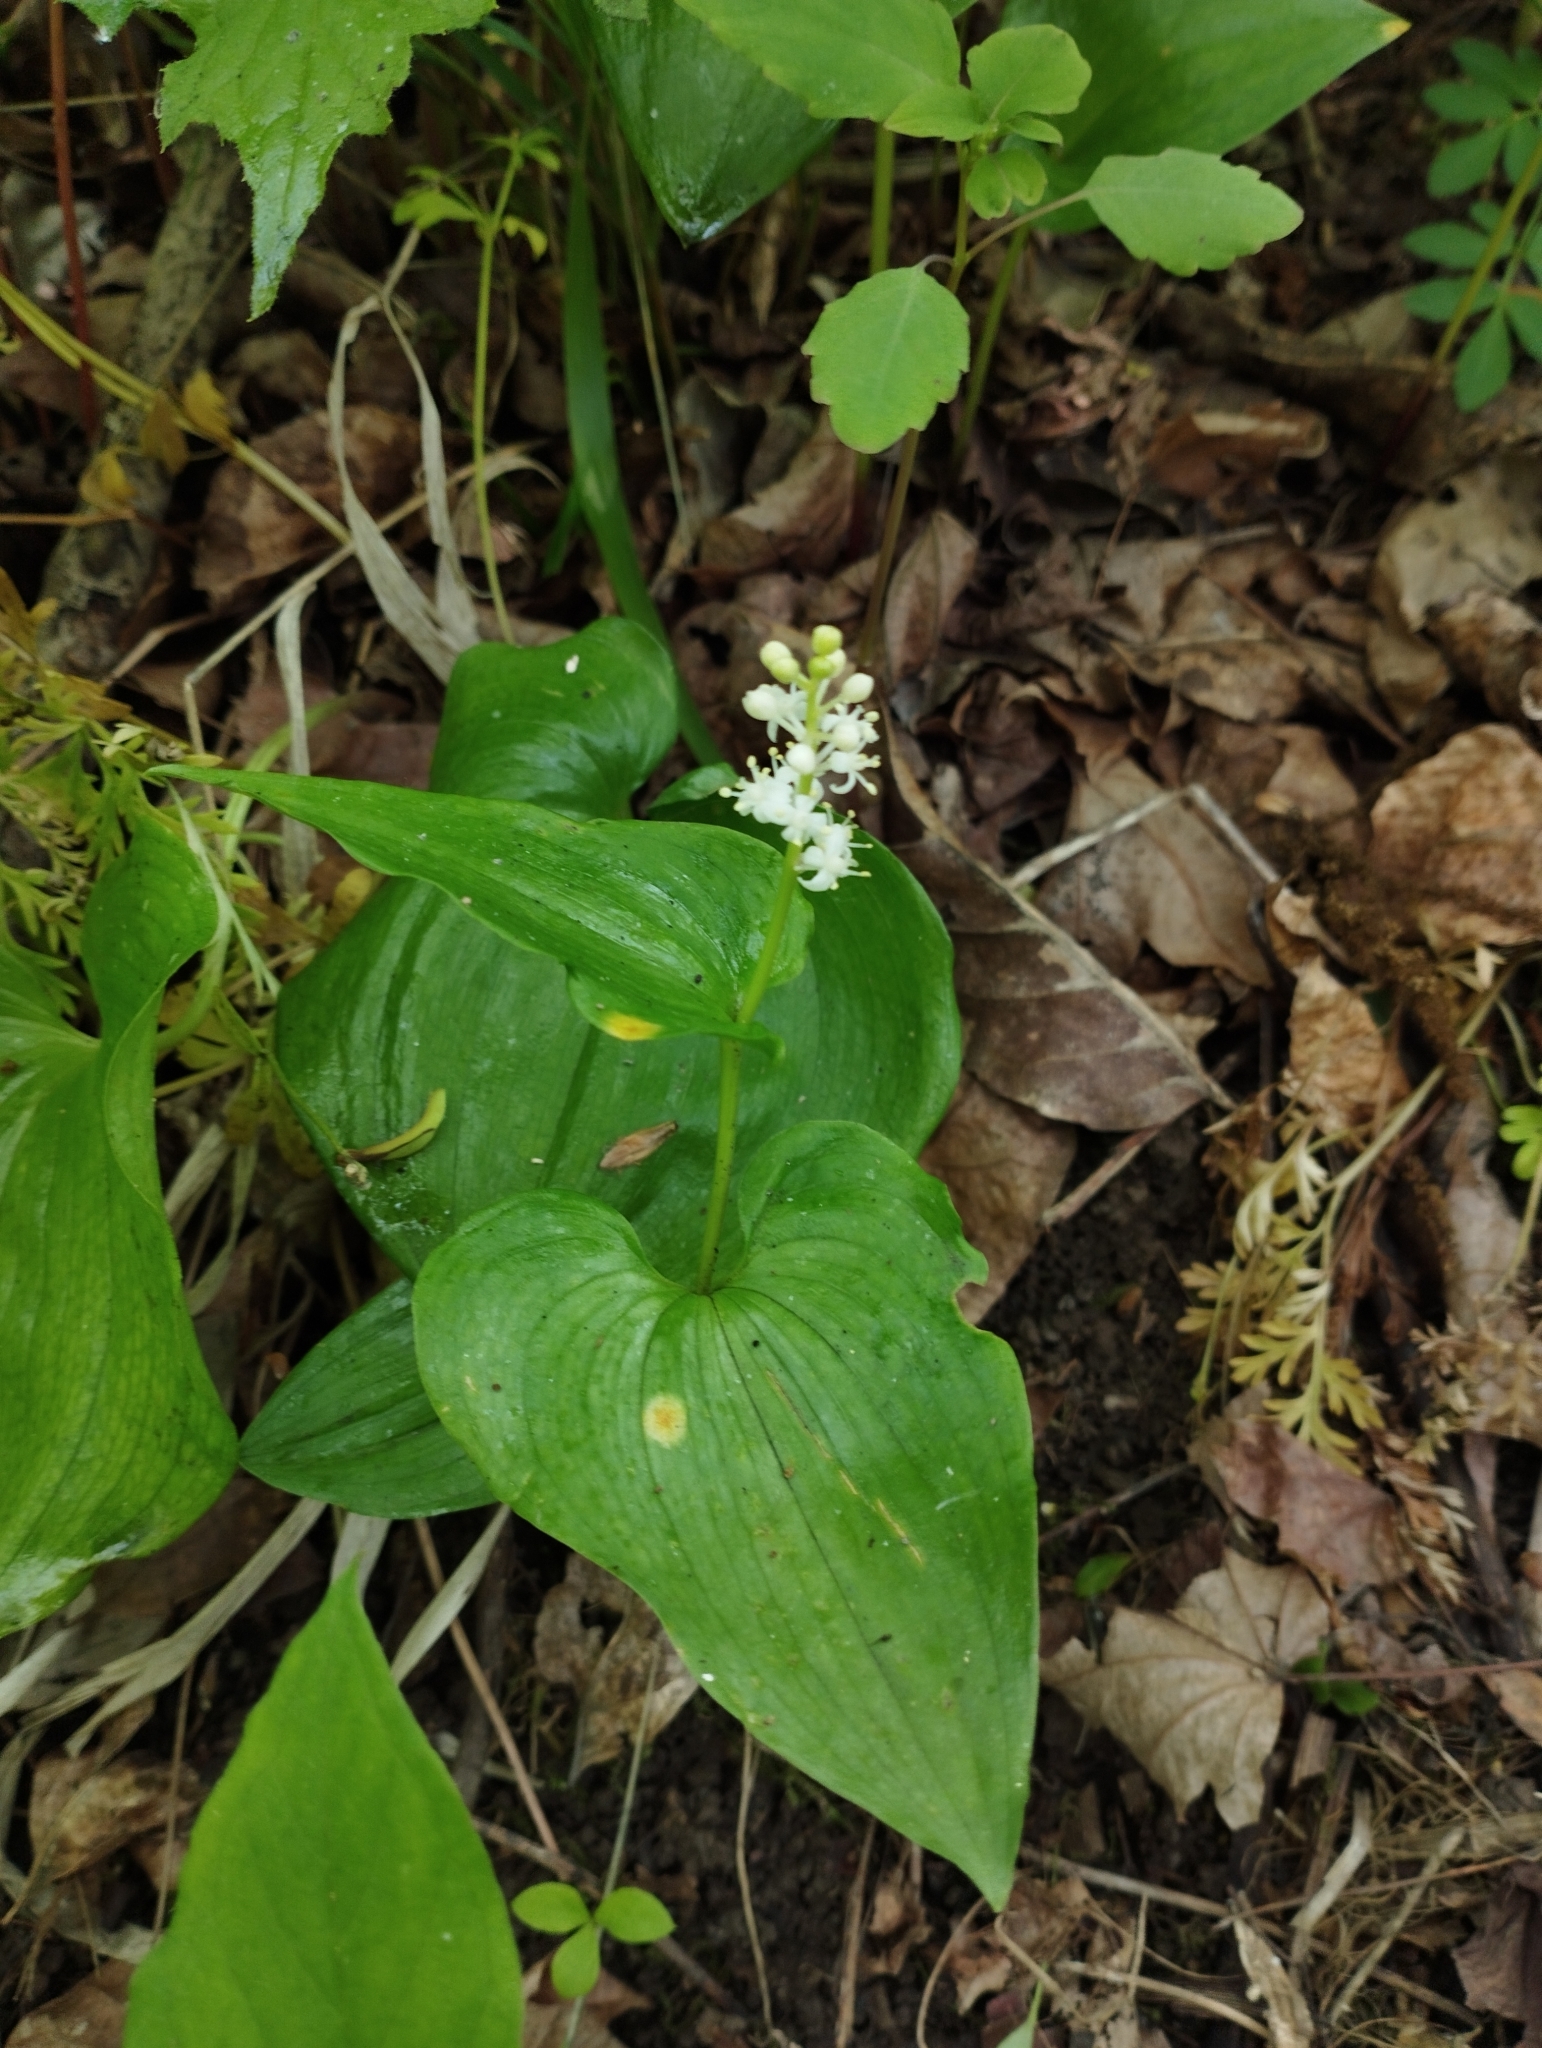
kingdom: Plantae
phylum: Tracheophyta
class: Liliopsida
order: Asparagales
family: Asparagaceae
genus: Maianthemum
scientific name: Maianthemum bifolium
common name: May lily
